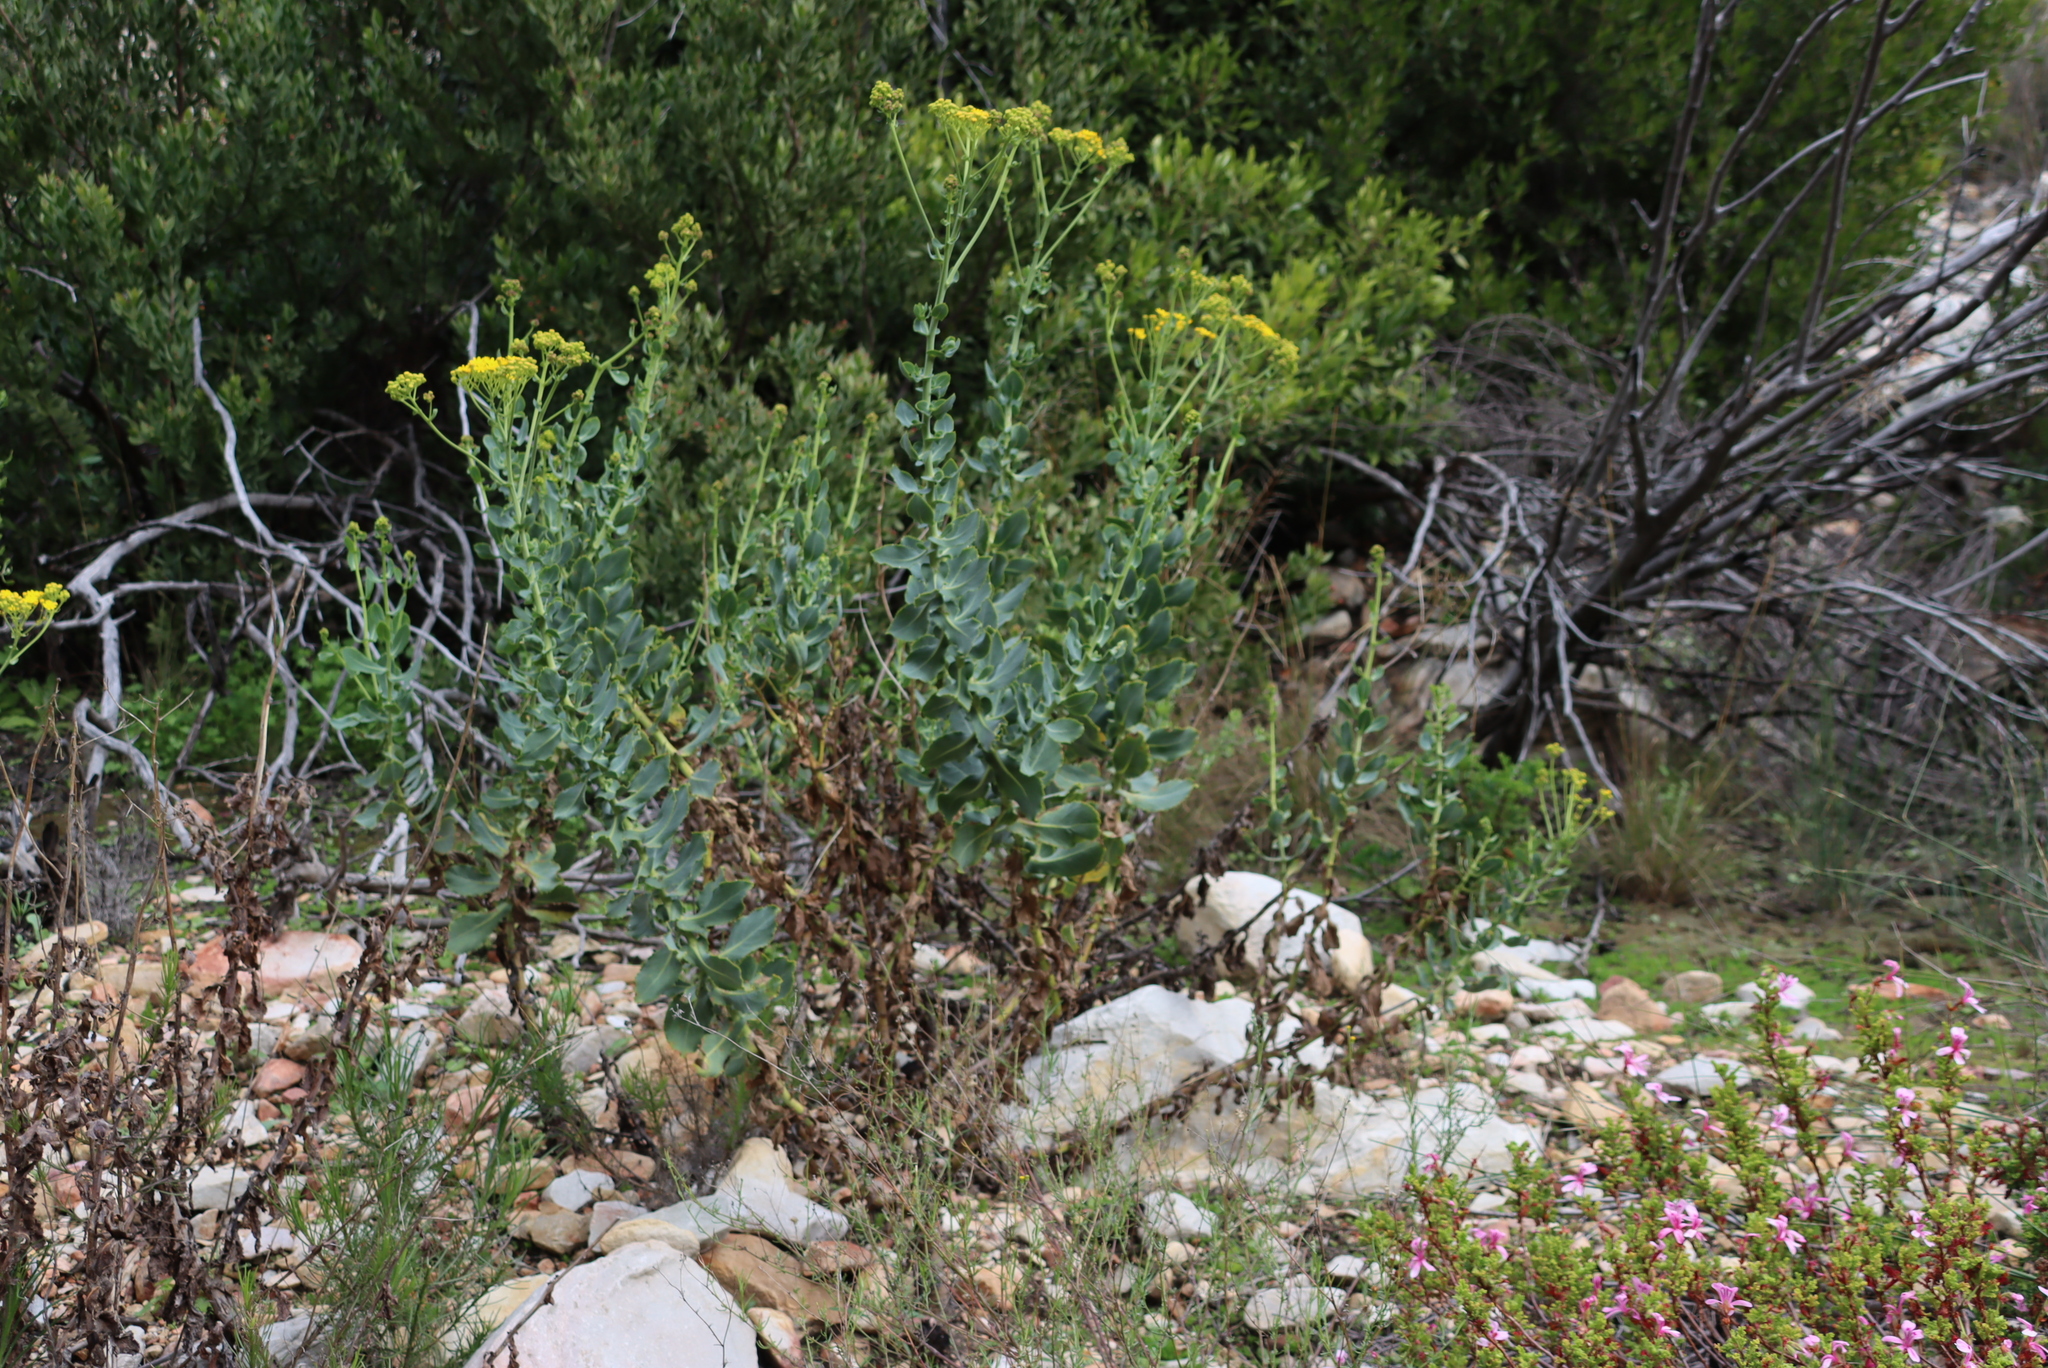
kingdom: Plantae
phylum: Tracheophyta
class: Magnoliopsida
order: Asterales
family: Asteraceae
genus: Othonna
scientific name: Othonna parviflora
